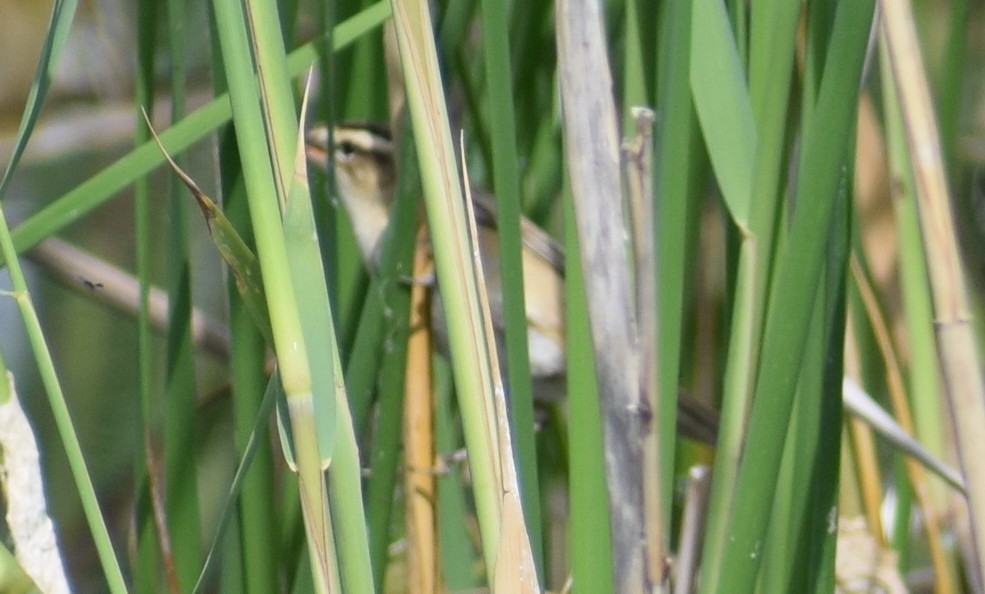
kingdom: Animalia
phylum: Chordata
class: Aves
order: Passeriformes
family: Acrocephalidae
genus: Acrocephalus
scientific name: Acrocephalus schoenobaenus
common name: Sedge warbler
